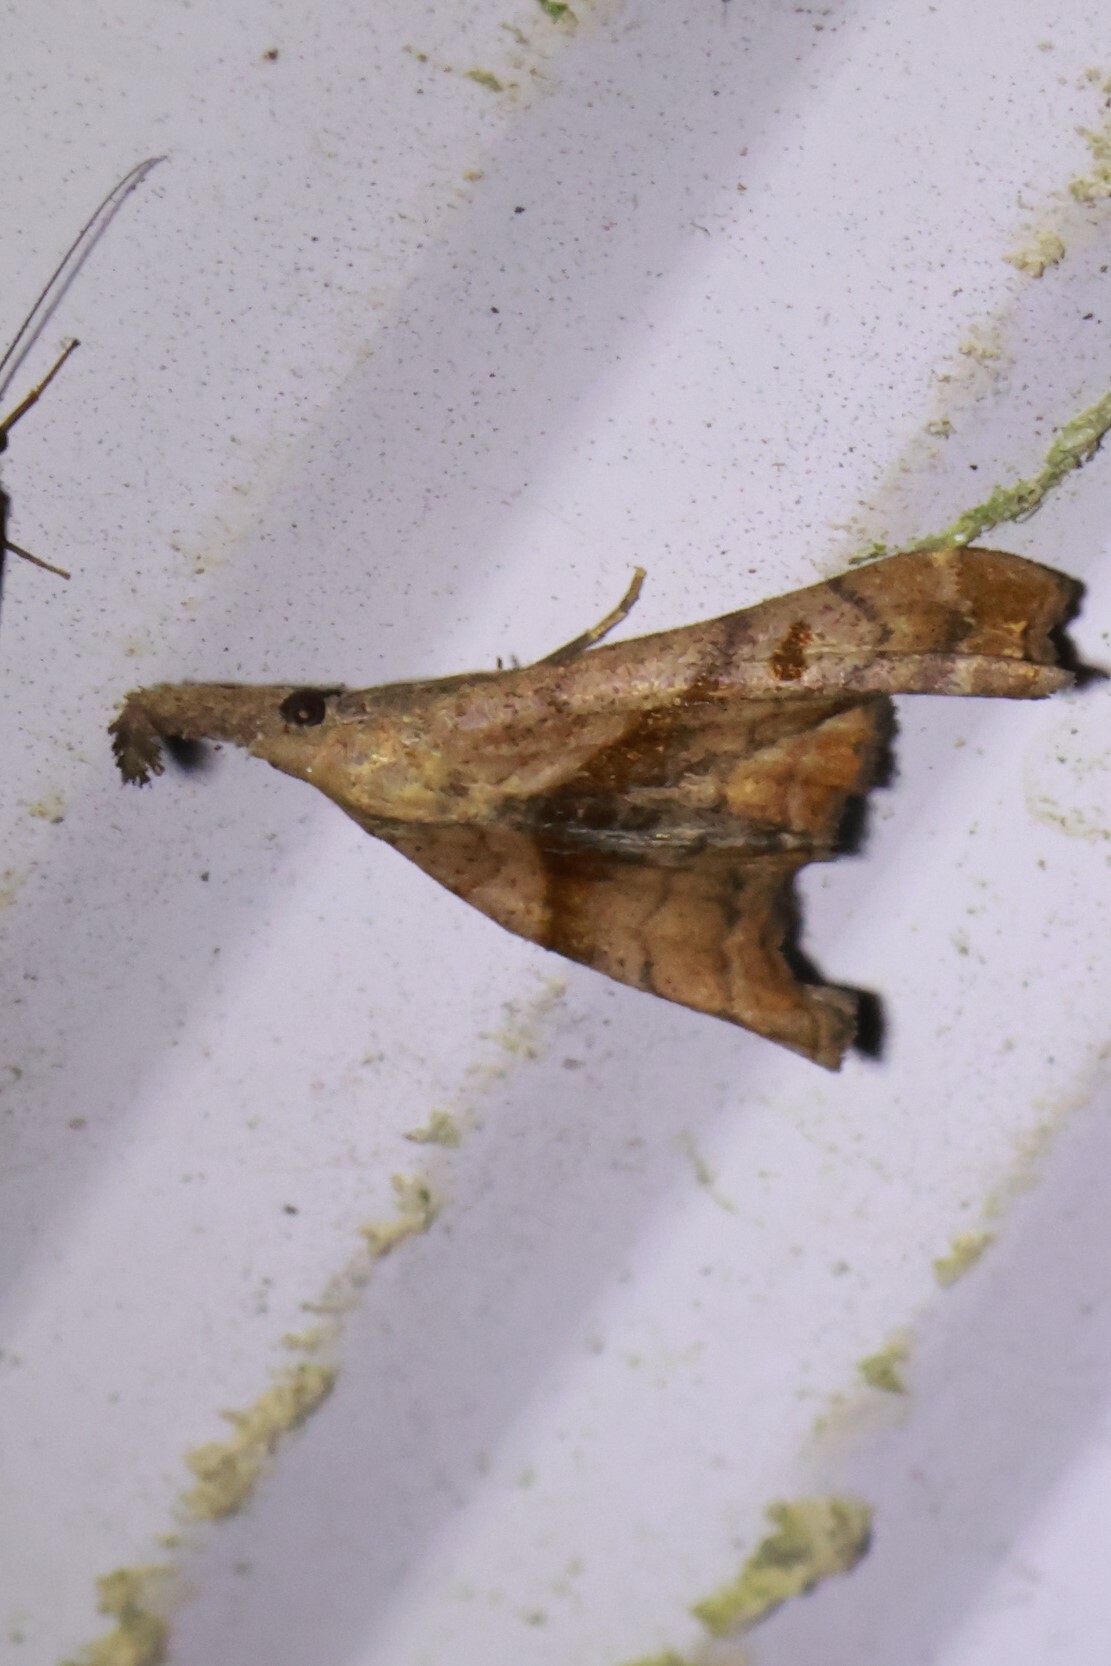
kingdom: Animalia
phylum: Arthropoda
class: Insecta
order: Lepidoptera
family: Erebidae
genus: Palthis
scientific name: Palthis angulalis
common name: Dark-spotted palthis moth
